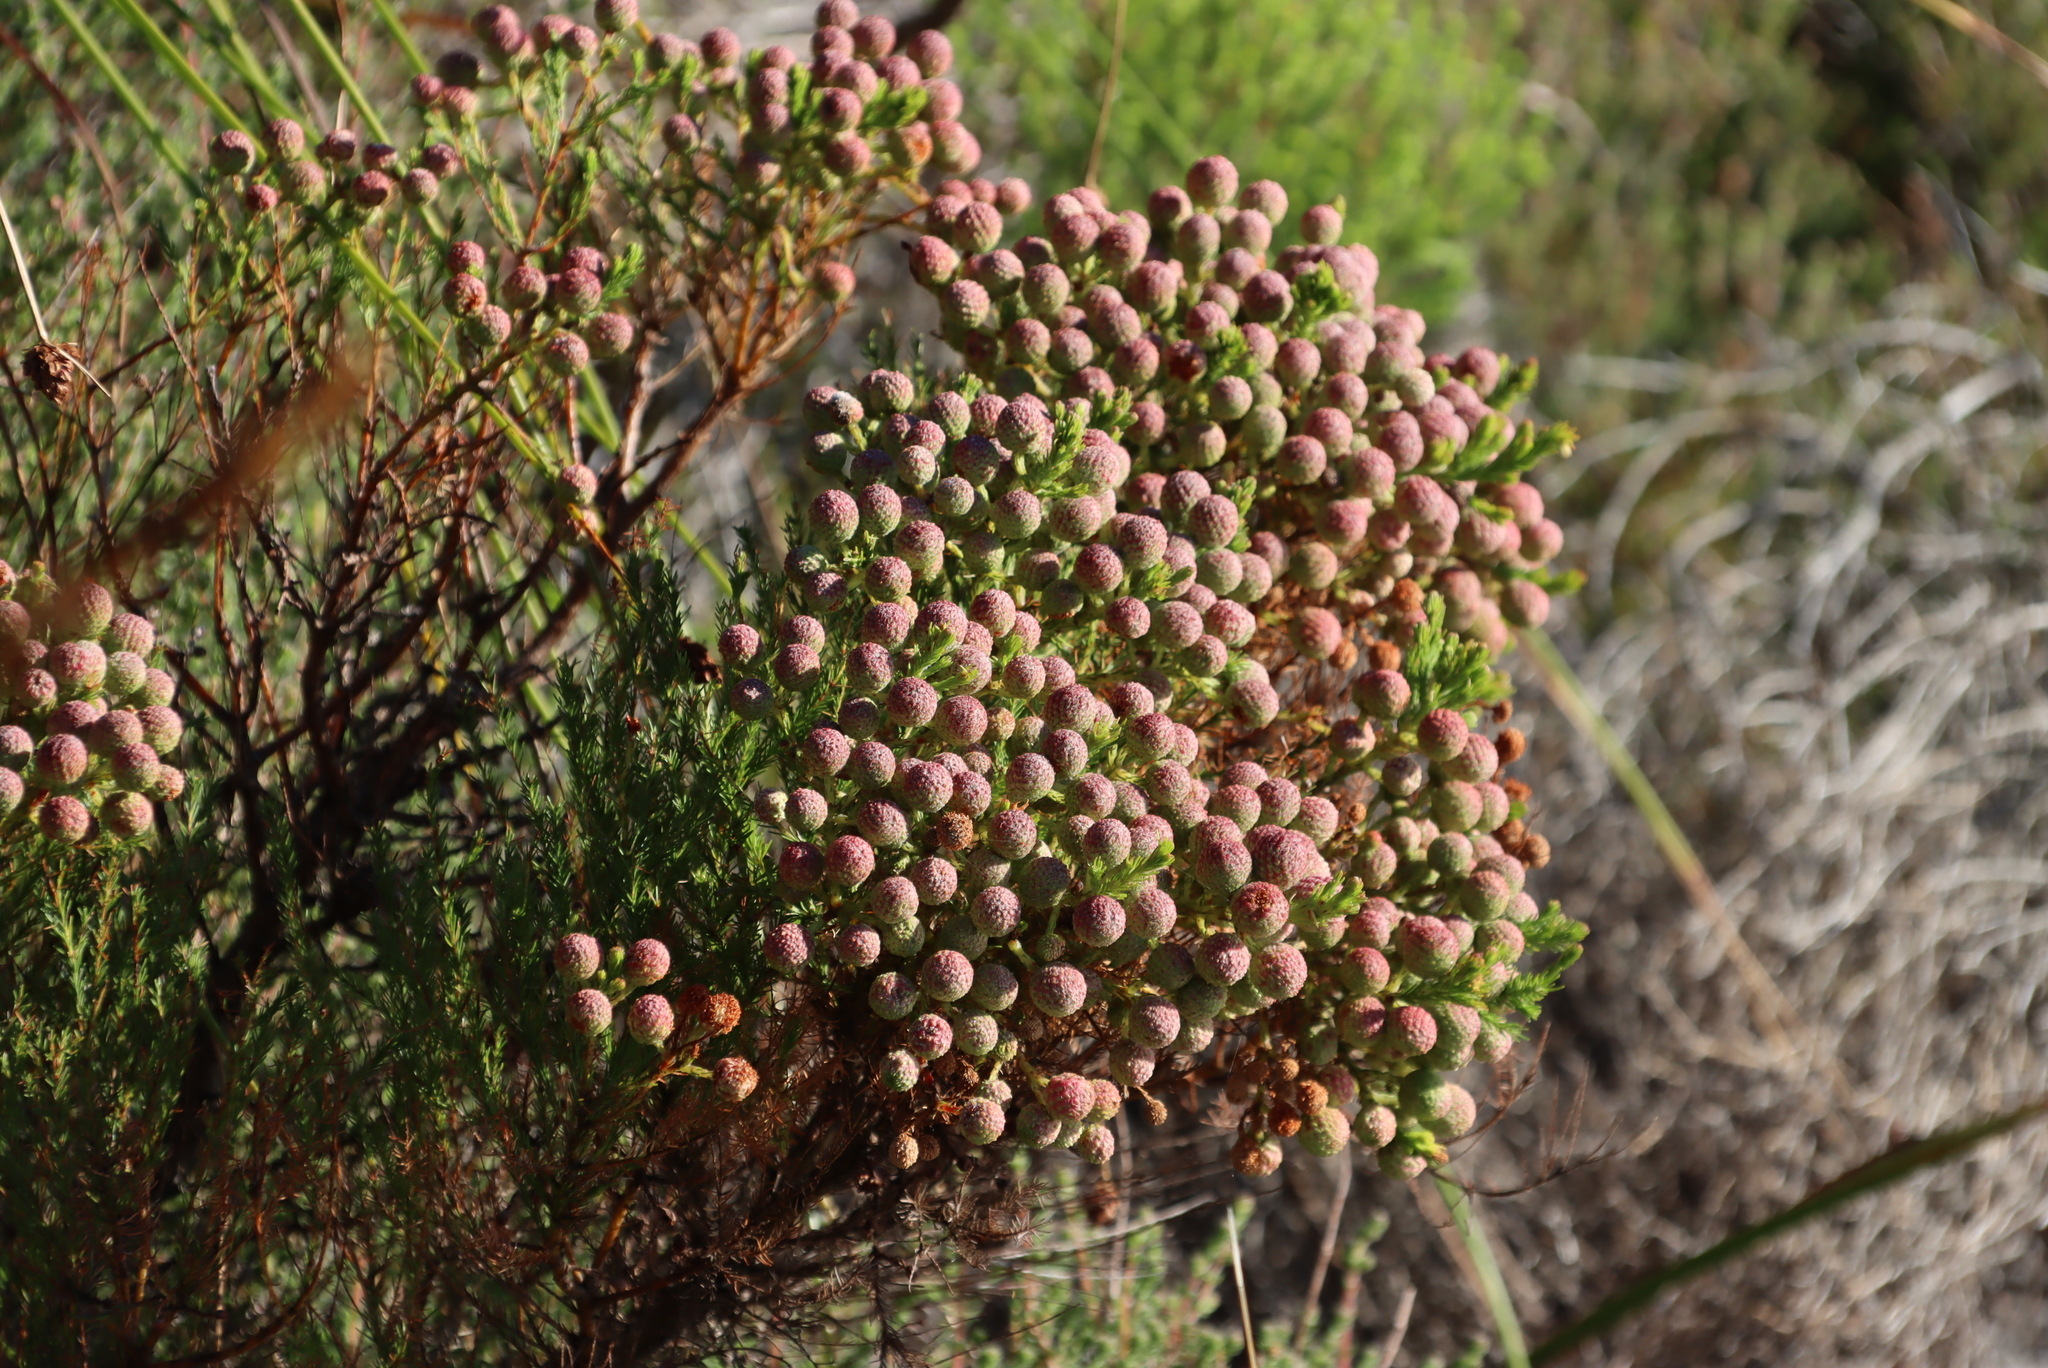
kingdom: Plantae
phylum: Tracheophyta
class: Magnoliopsida
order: Bruniales
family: Bruniaceae
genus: Berzelia
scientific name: Berzelia abrotanoides
